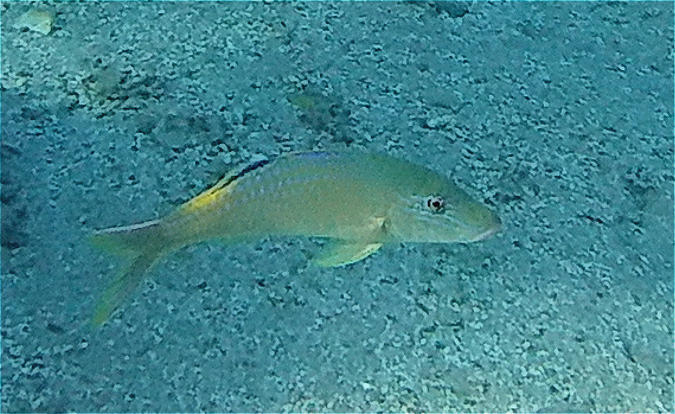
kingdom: Animalia
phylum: Chordata
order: Perciformes
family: Mullidae
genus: Parupeneus
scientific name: Parupeneus cyclostomus
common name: Goldsaddle goatfish
